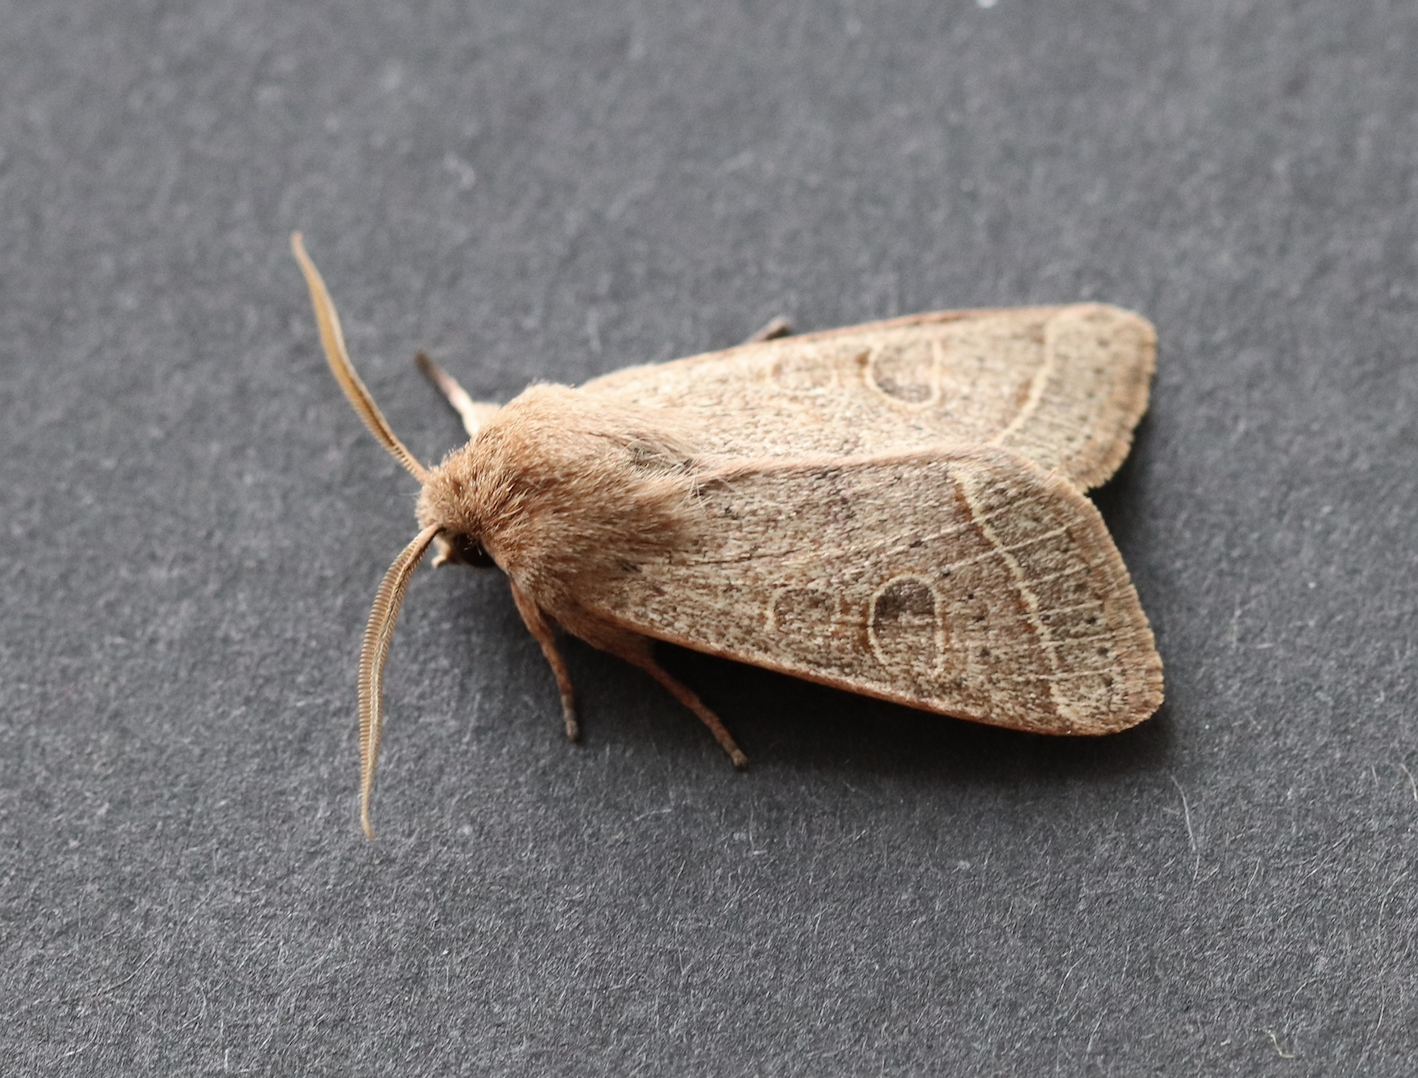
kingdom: Animalia
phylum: Arthropoda
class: Insecta
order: Lepidoptera
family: Noctuidae
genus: Orthosia
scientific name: Orthosia cerasi
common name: Common quaker
